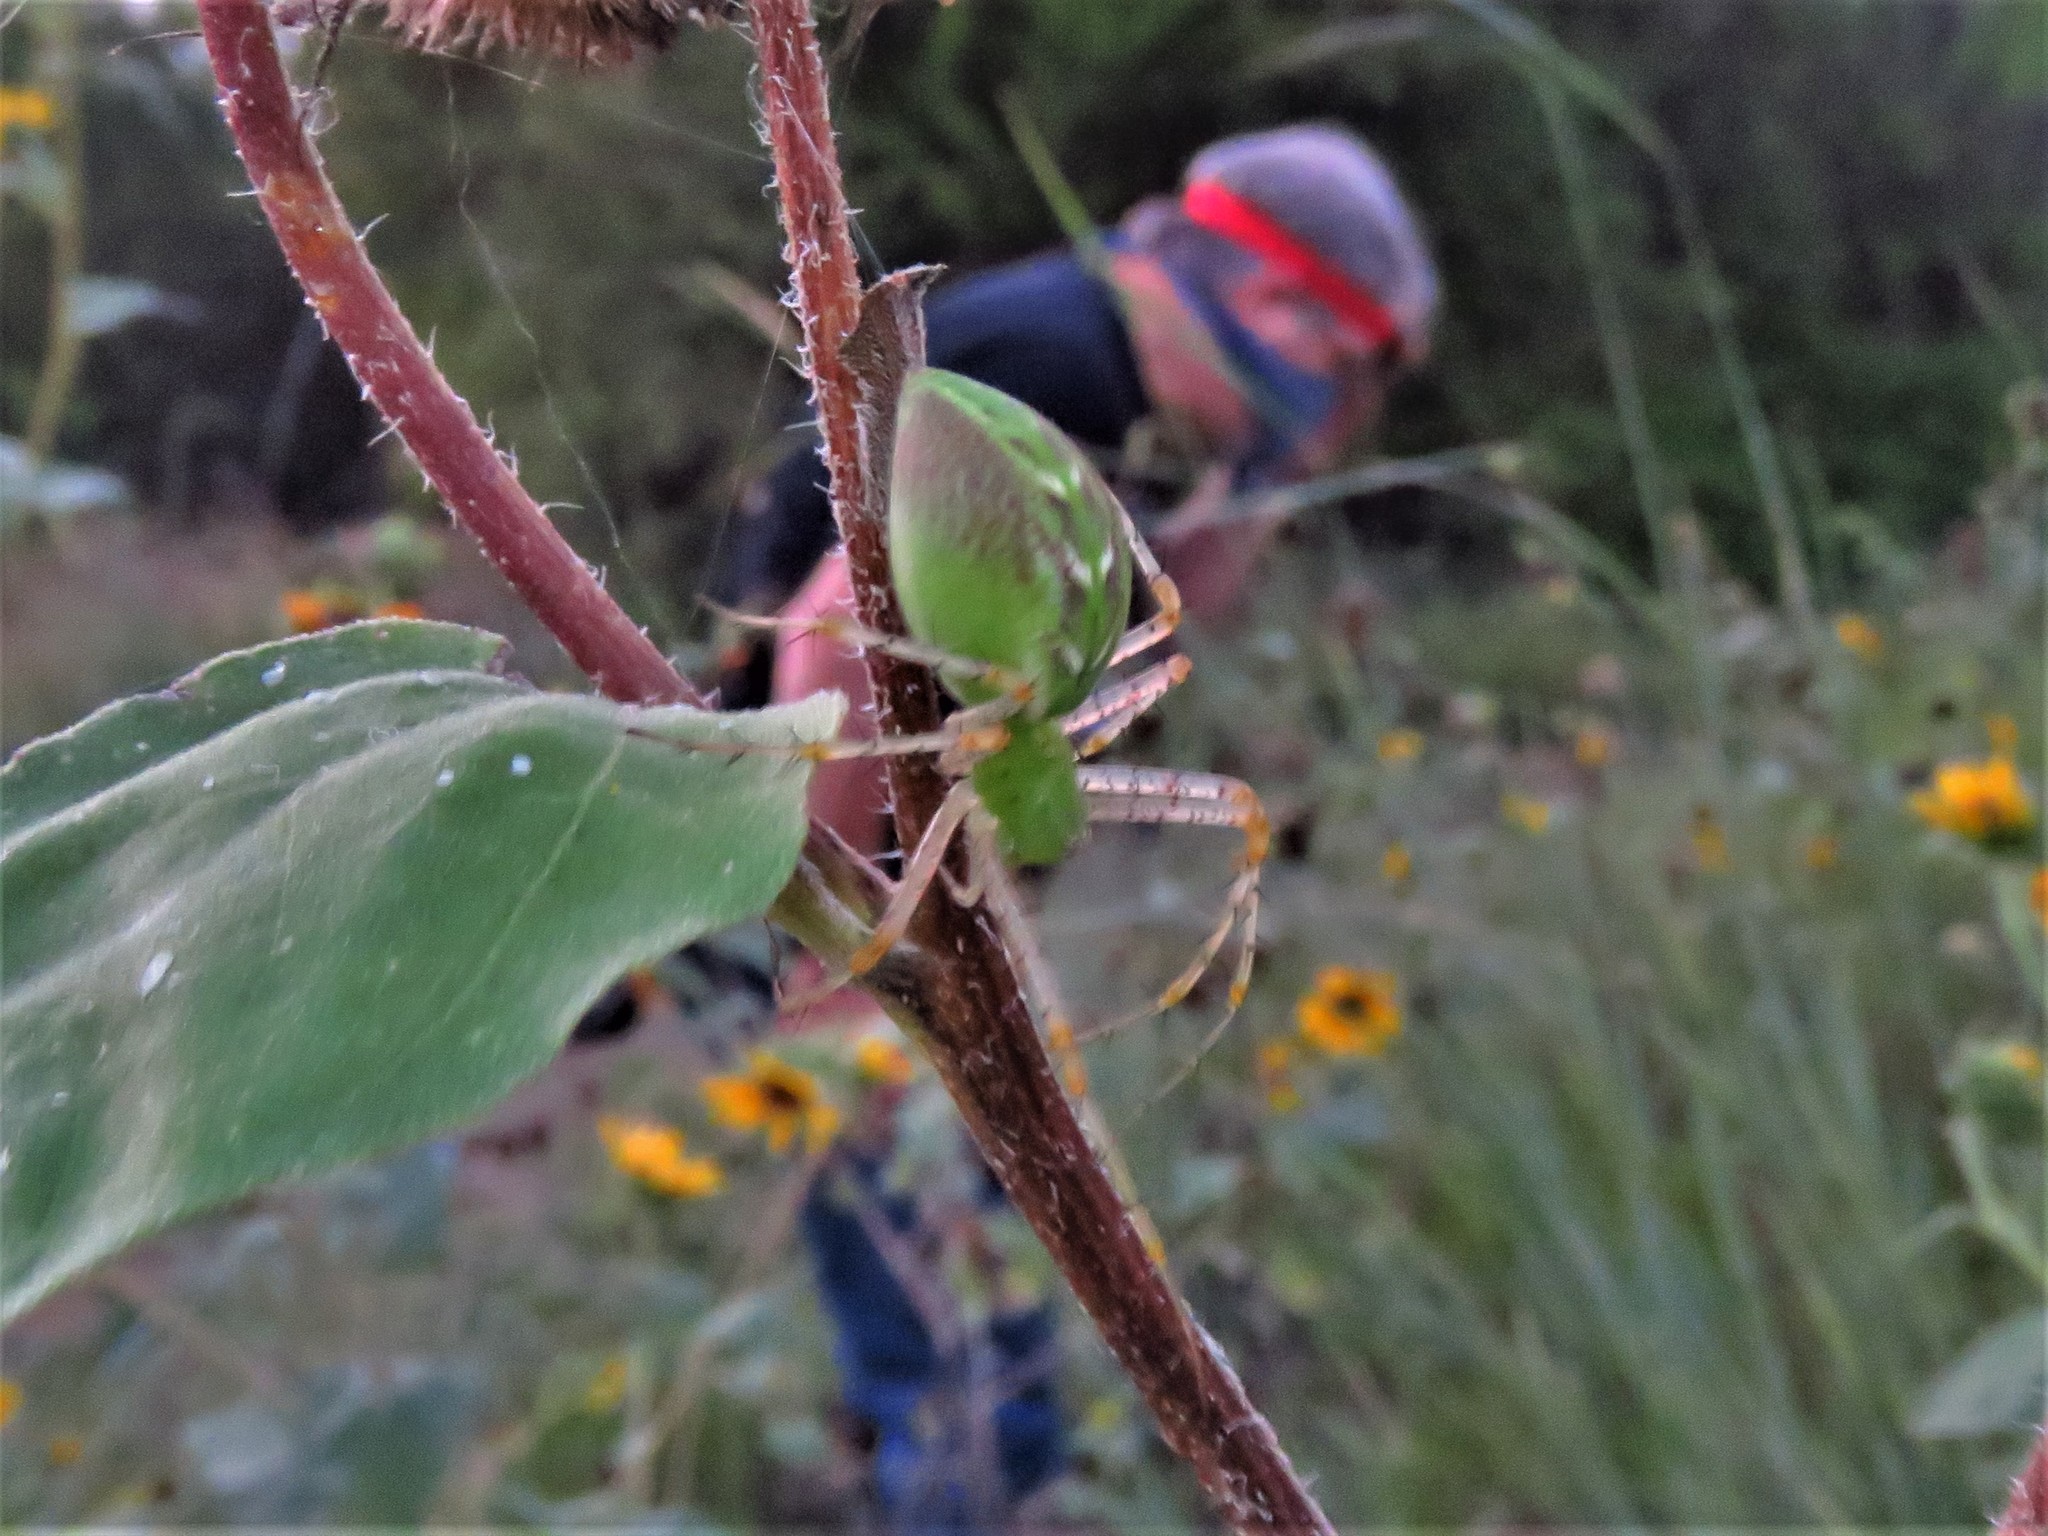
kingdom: Animalia
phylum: Arthropoda
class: Arachnida
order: Araneae
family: Oxyopidae
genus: Peucetia
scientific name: Peucetia viridans
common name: Lynx spiders
